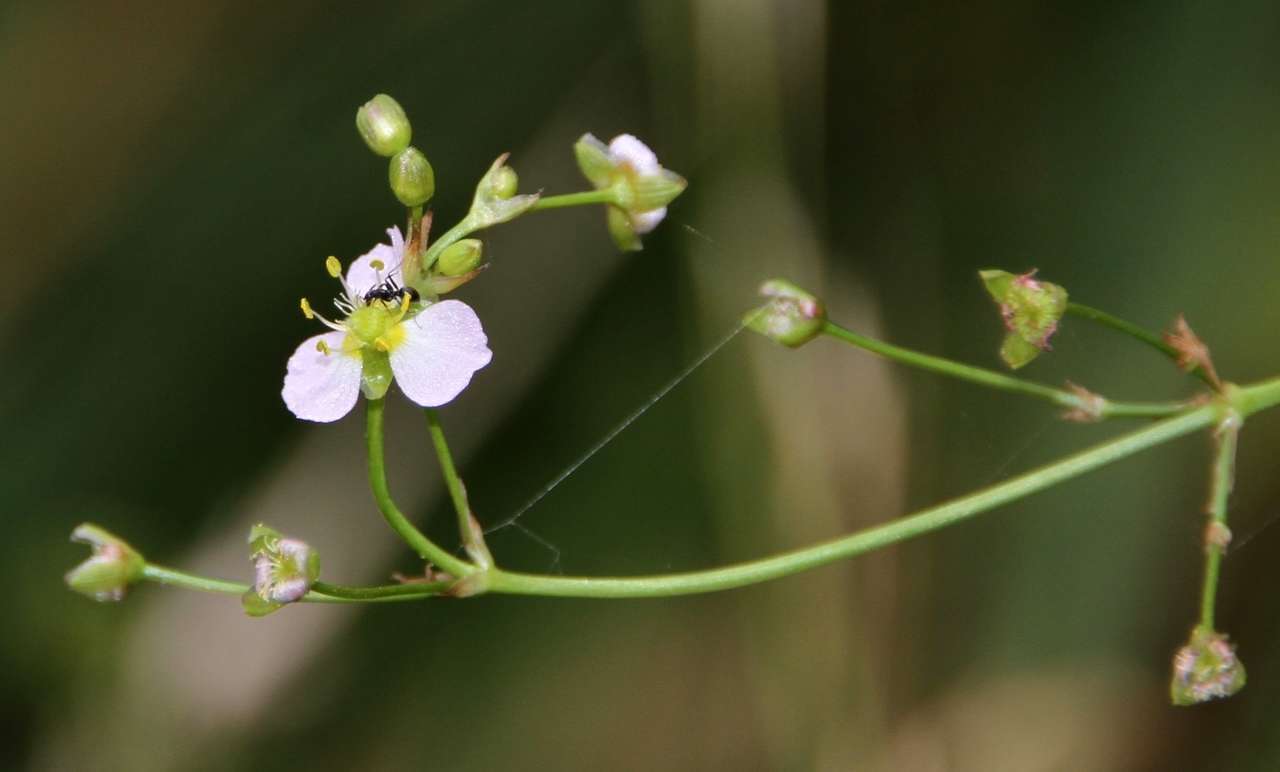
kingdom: Plantae
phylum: Tracheophyta
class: Liliopsida
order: Alismatales
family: Alismataceae
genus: Alisma
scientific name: Alisma plantago-aquatica
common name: Water-plantain
